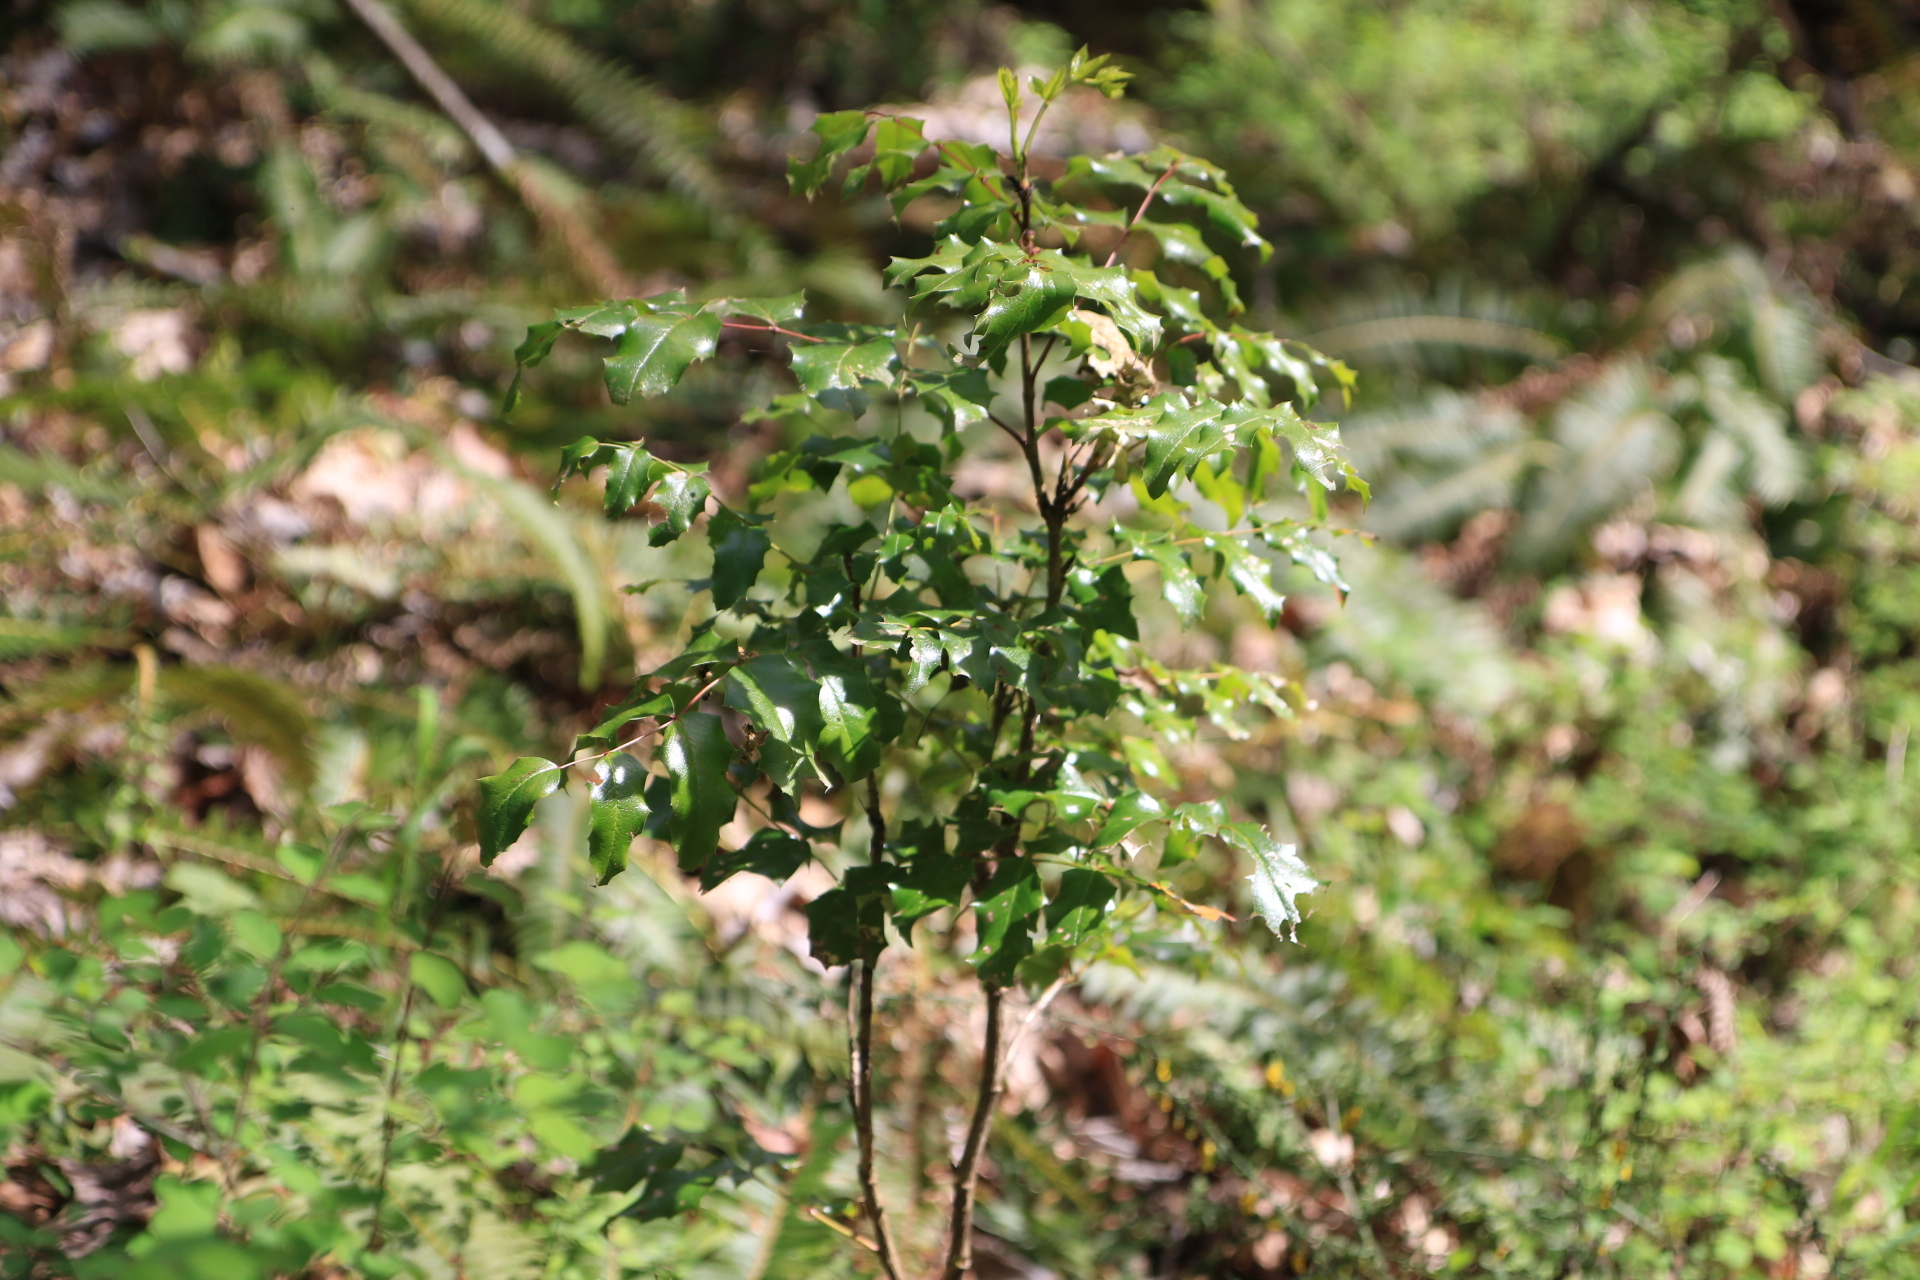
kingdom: Plantae
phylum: Tracheophyta
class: Magnoliopsida
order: Ranunculales
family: Berberidaceae
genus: Mahonia
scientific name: Mahonia aquifolium
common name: Oregon-grape
